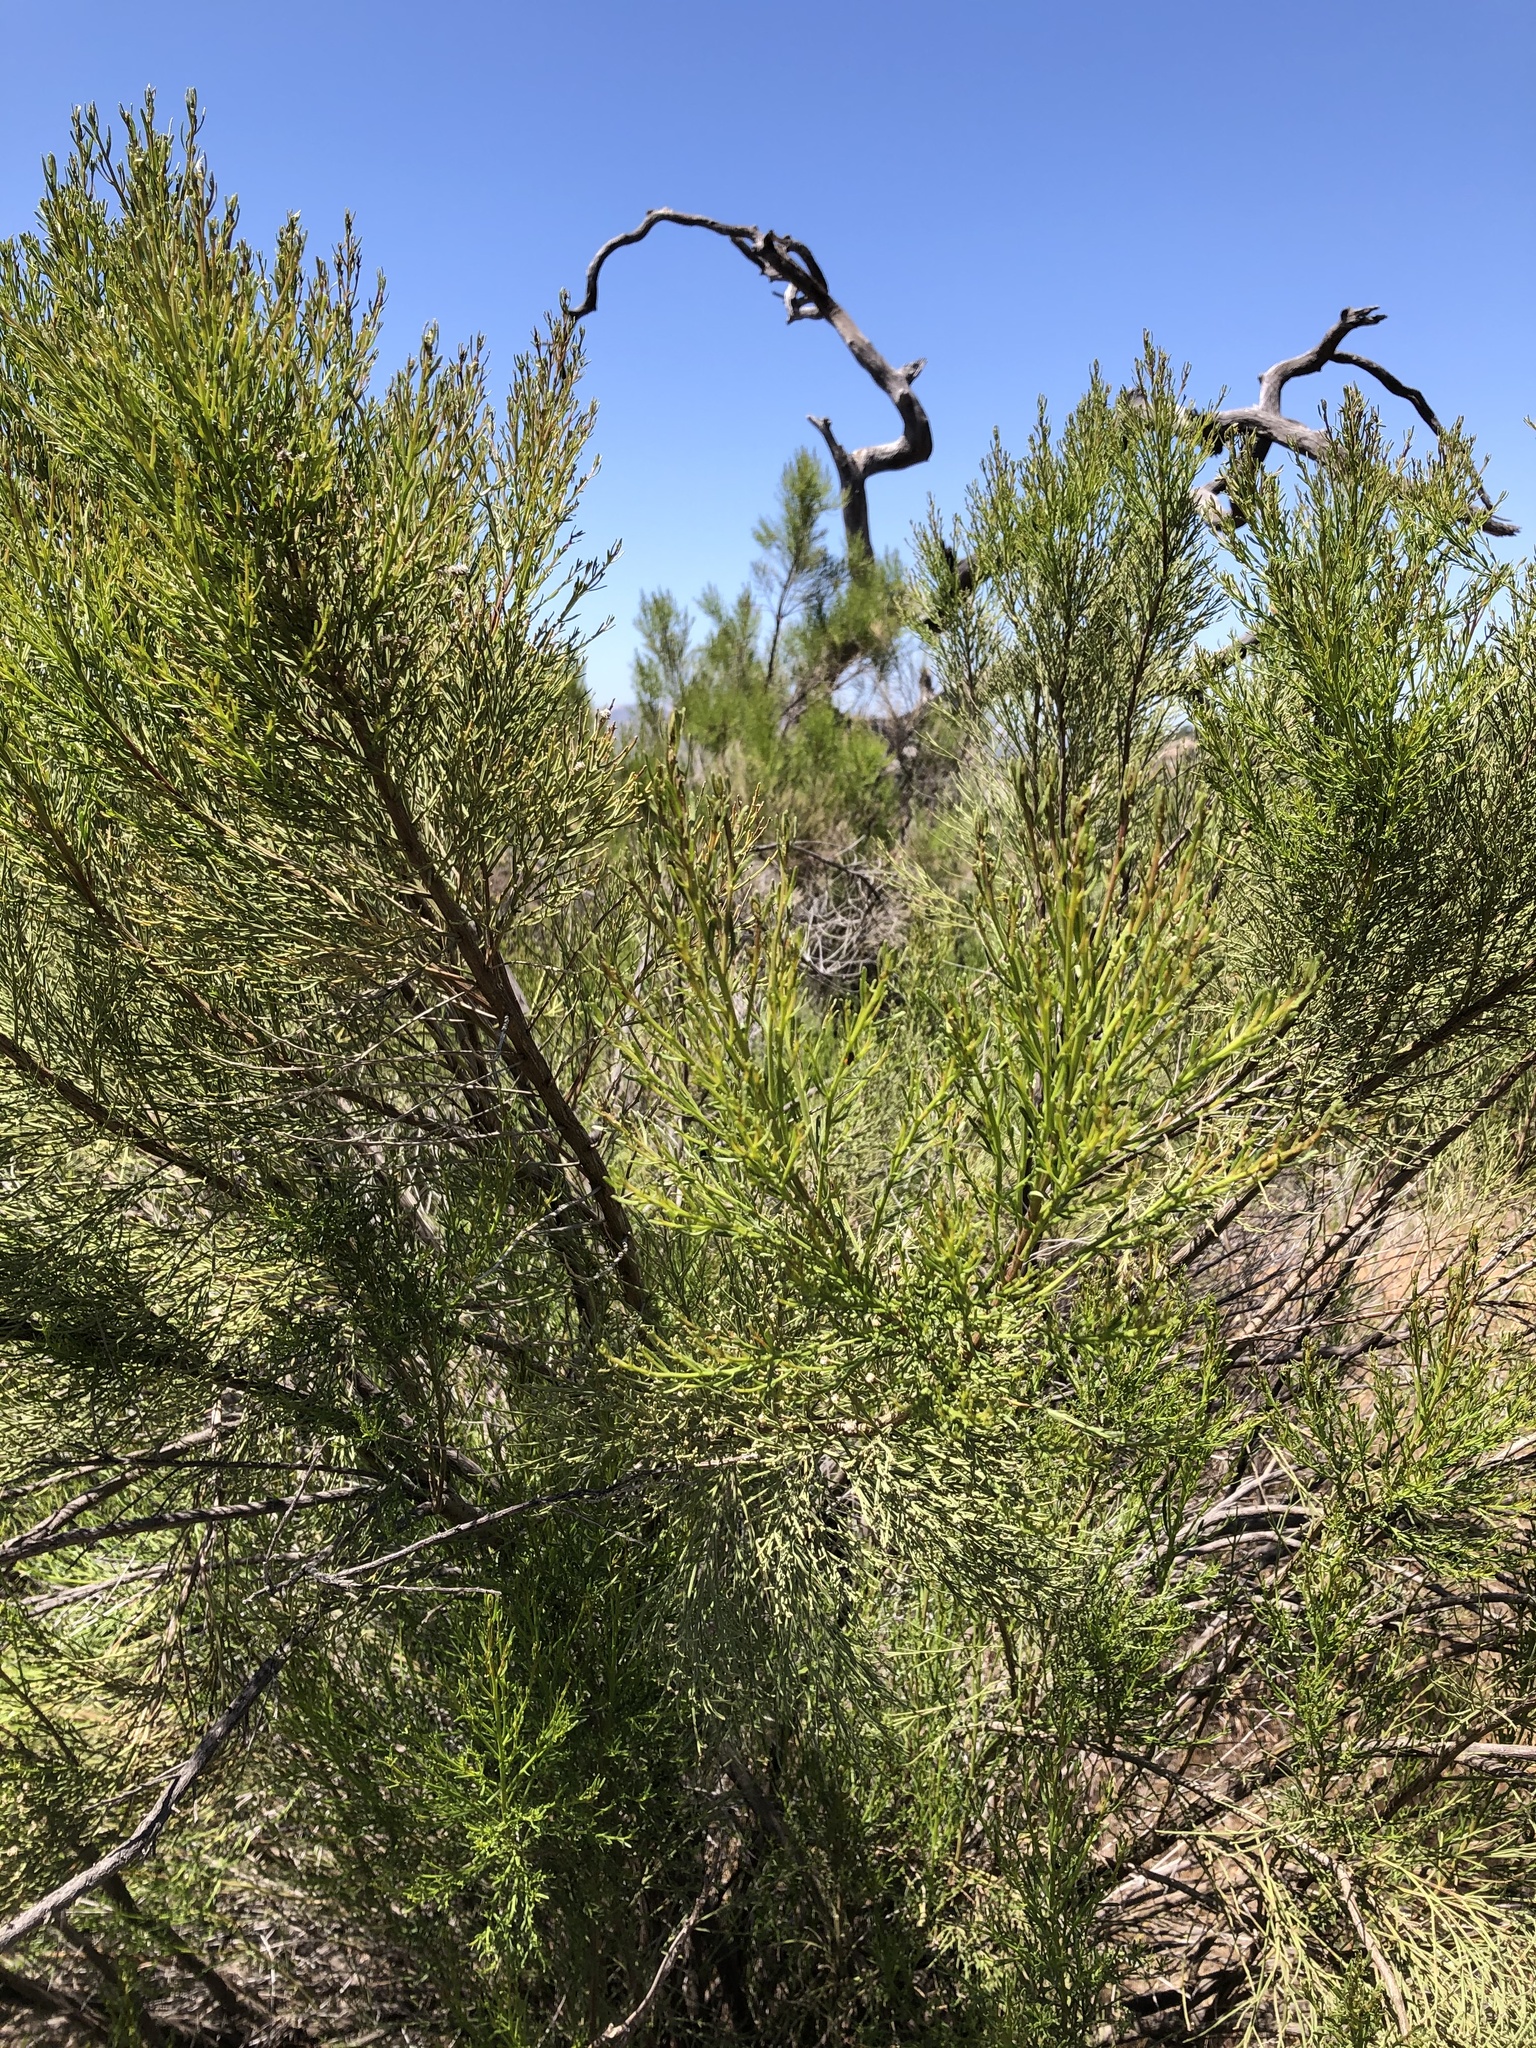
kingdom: Plantae
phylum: Tracheophyta
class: Magnoliopsida
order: Asterales
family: Asteraceae
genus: Baccharis
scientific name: Baccharis sarothroides
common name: Desert-broom
